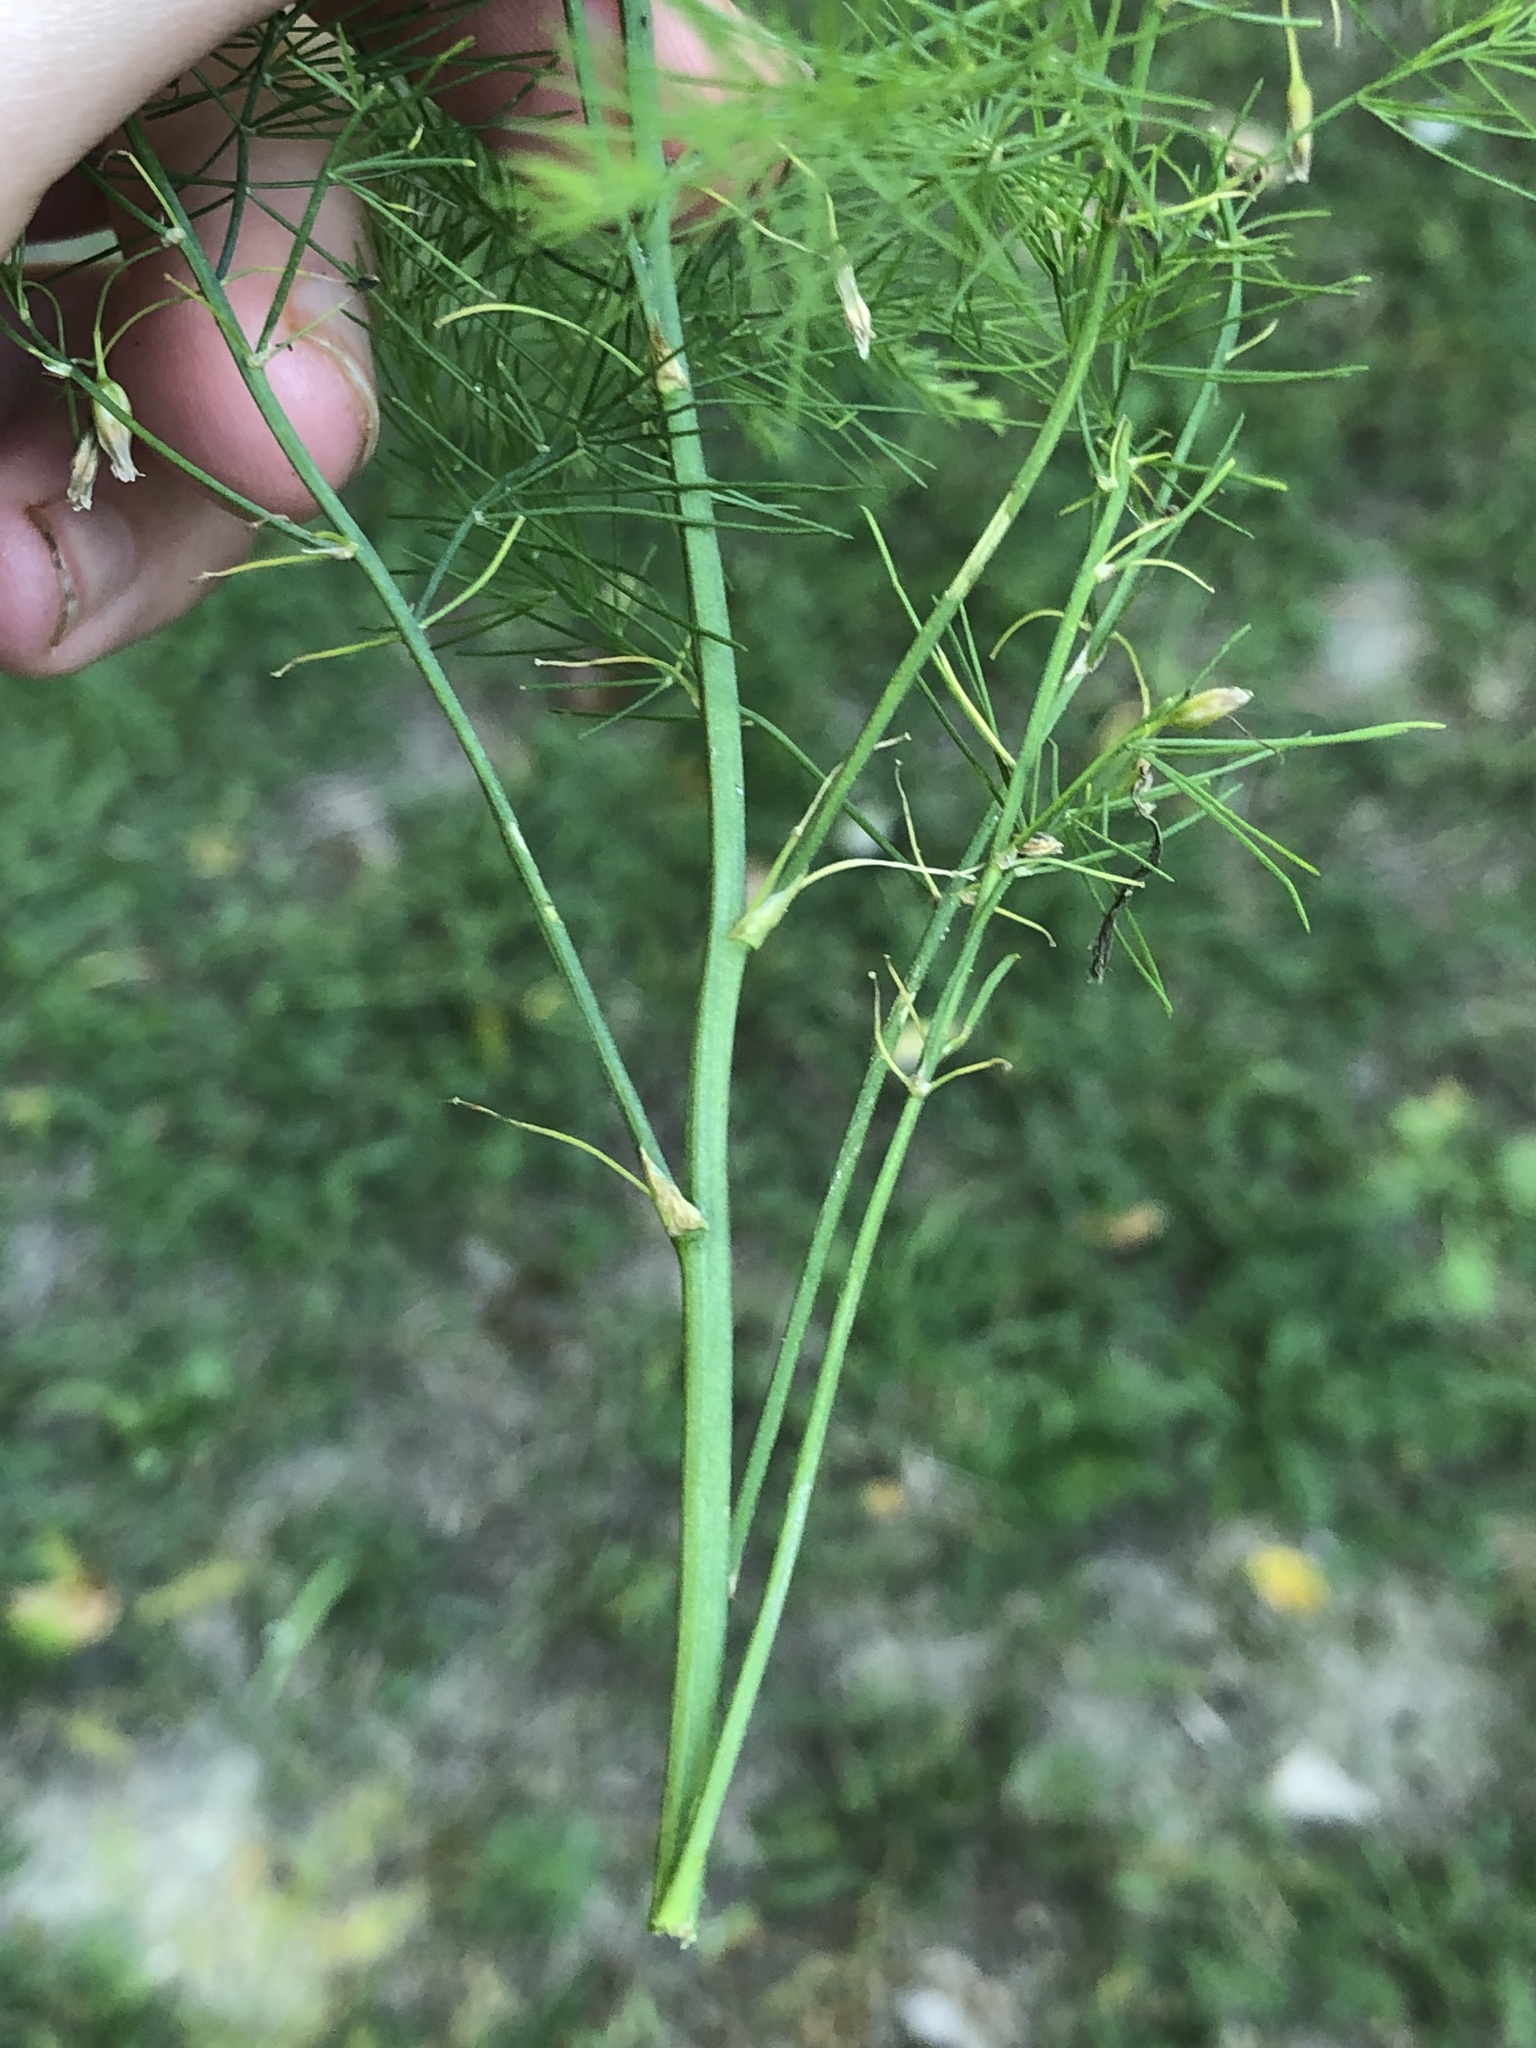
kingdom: Plantae
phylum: Tracheophyta
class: Liliopsida
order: Asparagales
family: Asparagaceae
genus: Asparagus
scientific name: Asparagus officinalis
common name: Garden asparagus
